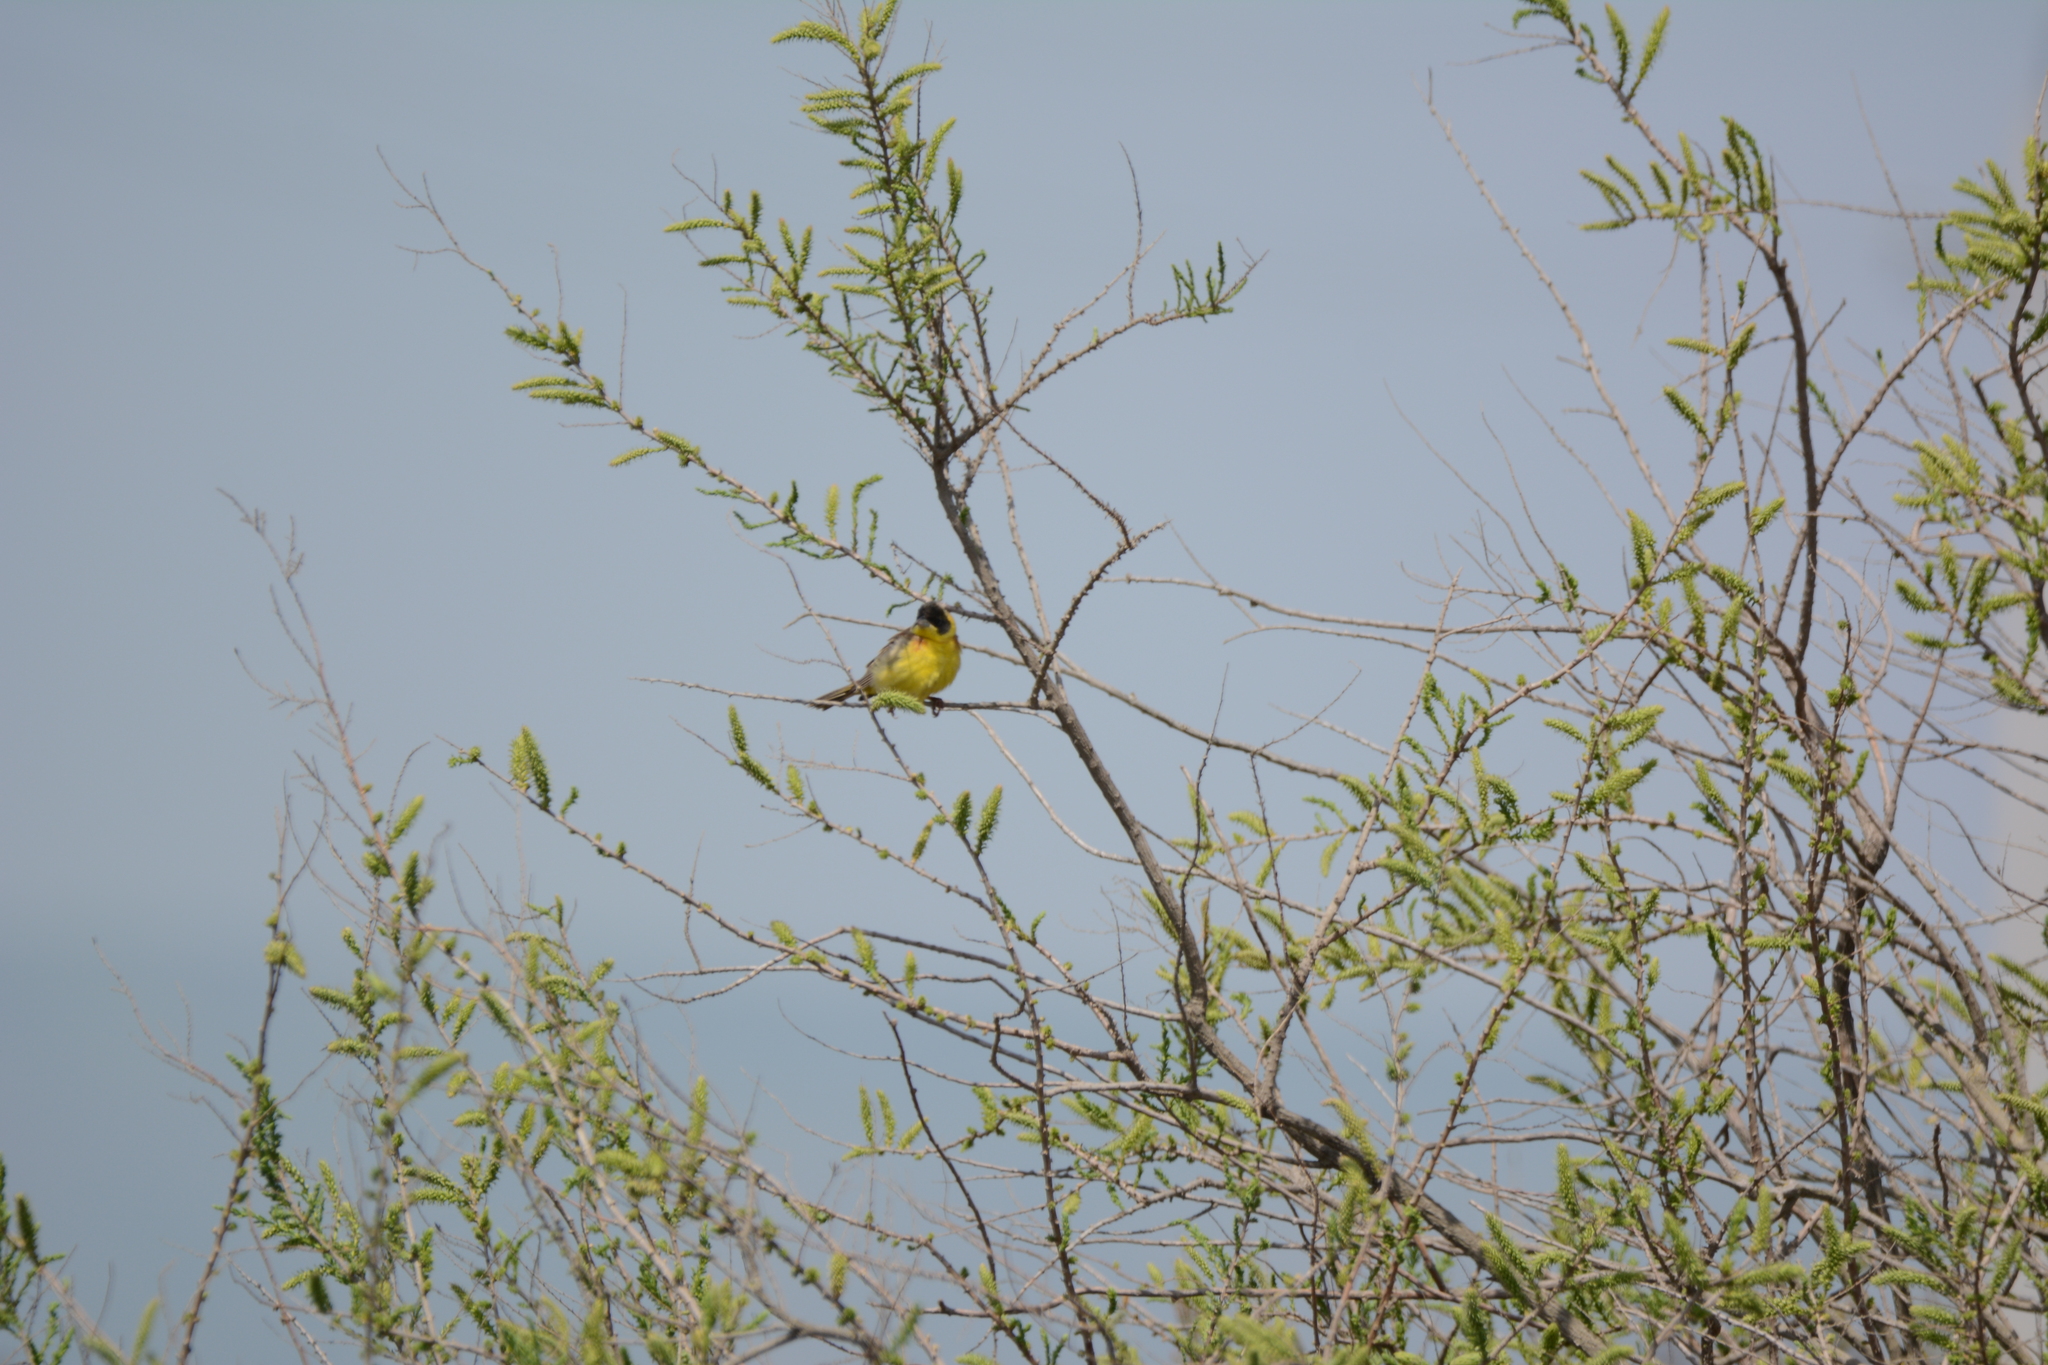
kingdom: Animalia
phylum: Chordata
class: Aves
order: Passeriformes
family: Emberizidae
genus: Emberiza
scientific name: Emberiza melanocephala
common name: Black-headed bunting
